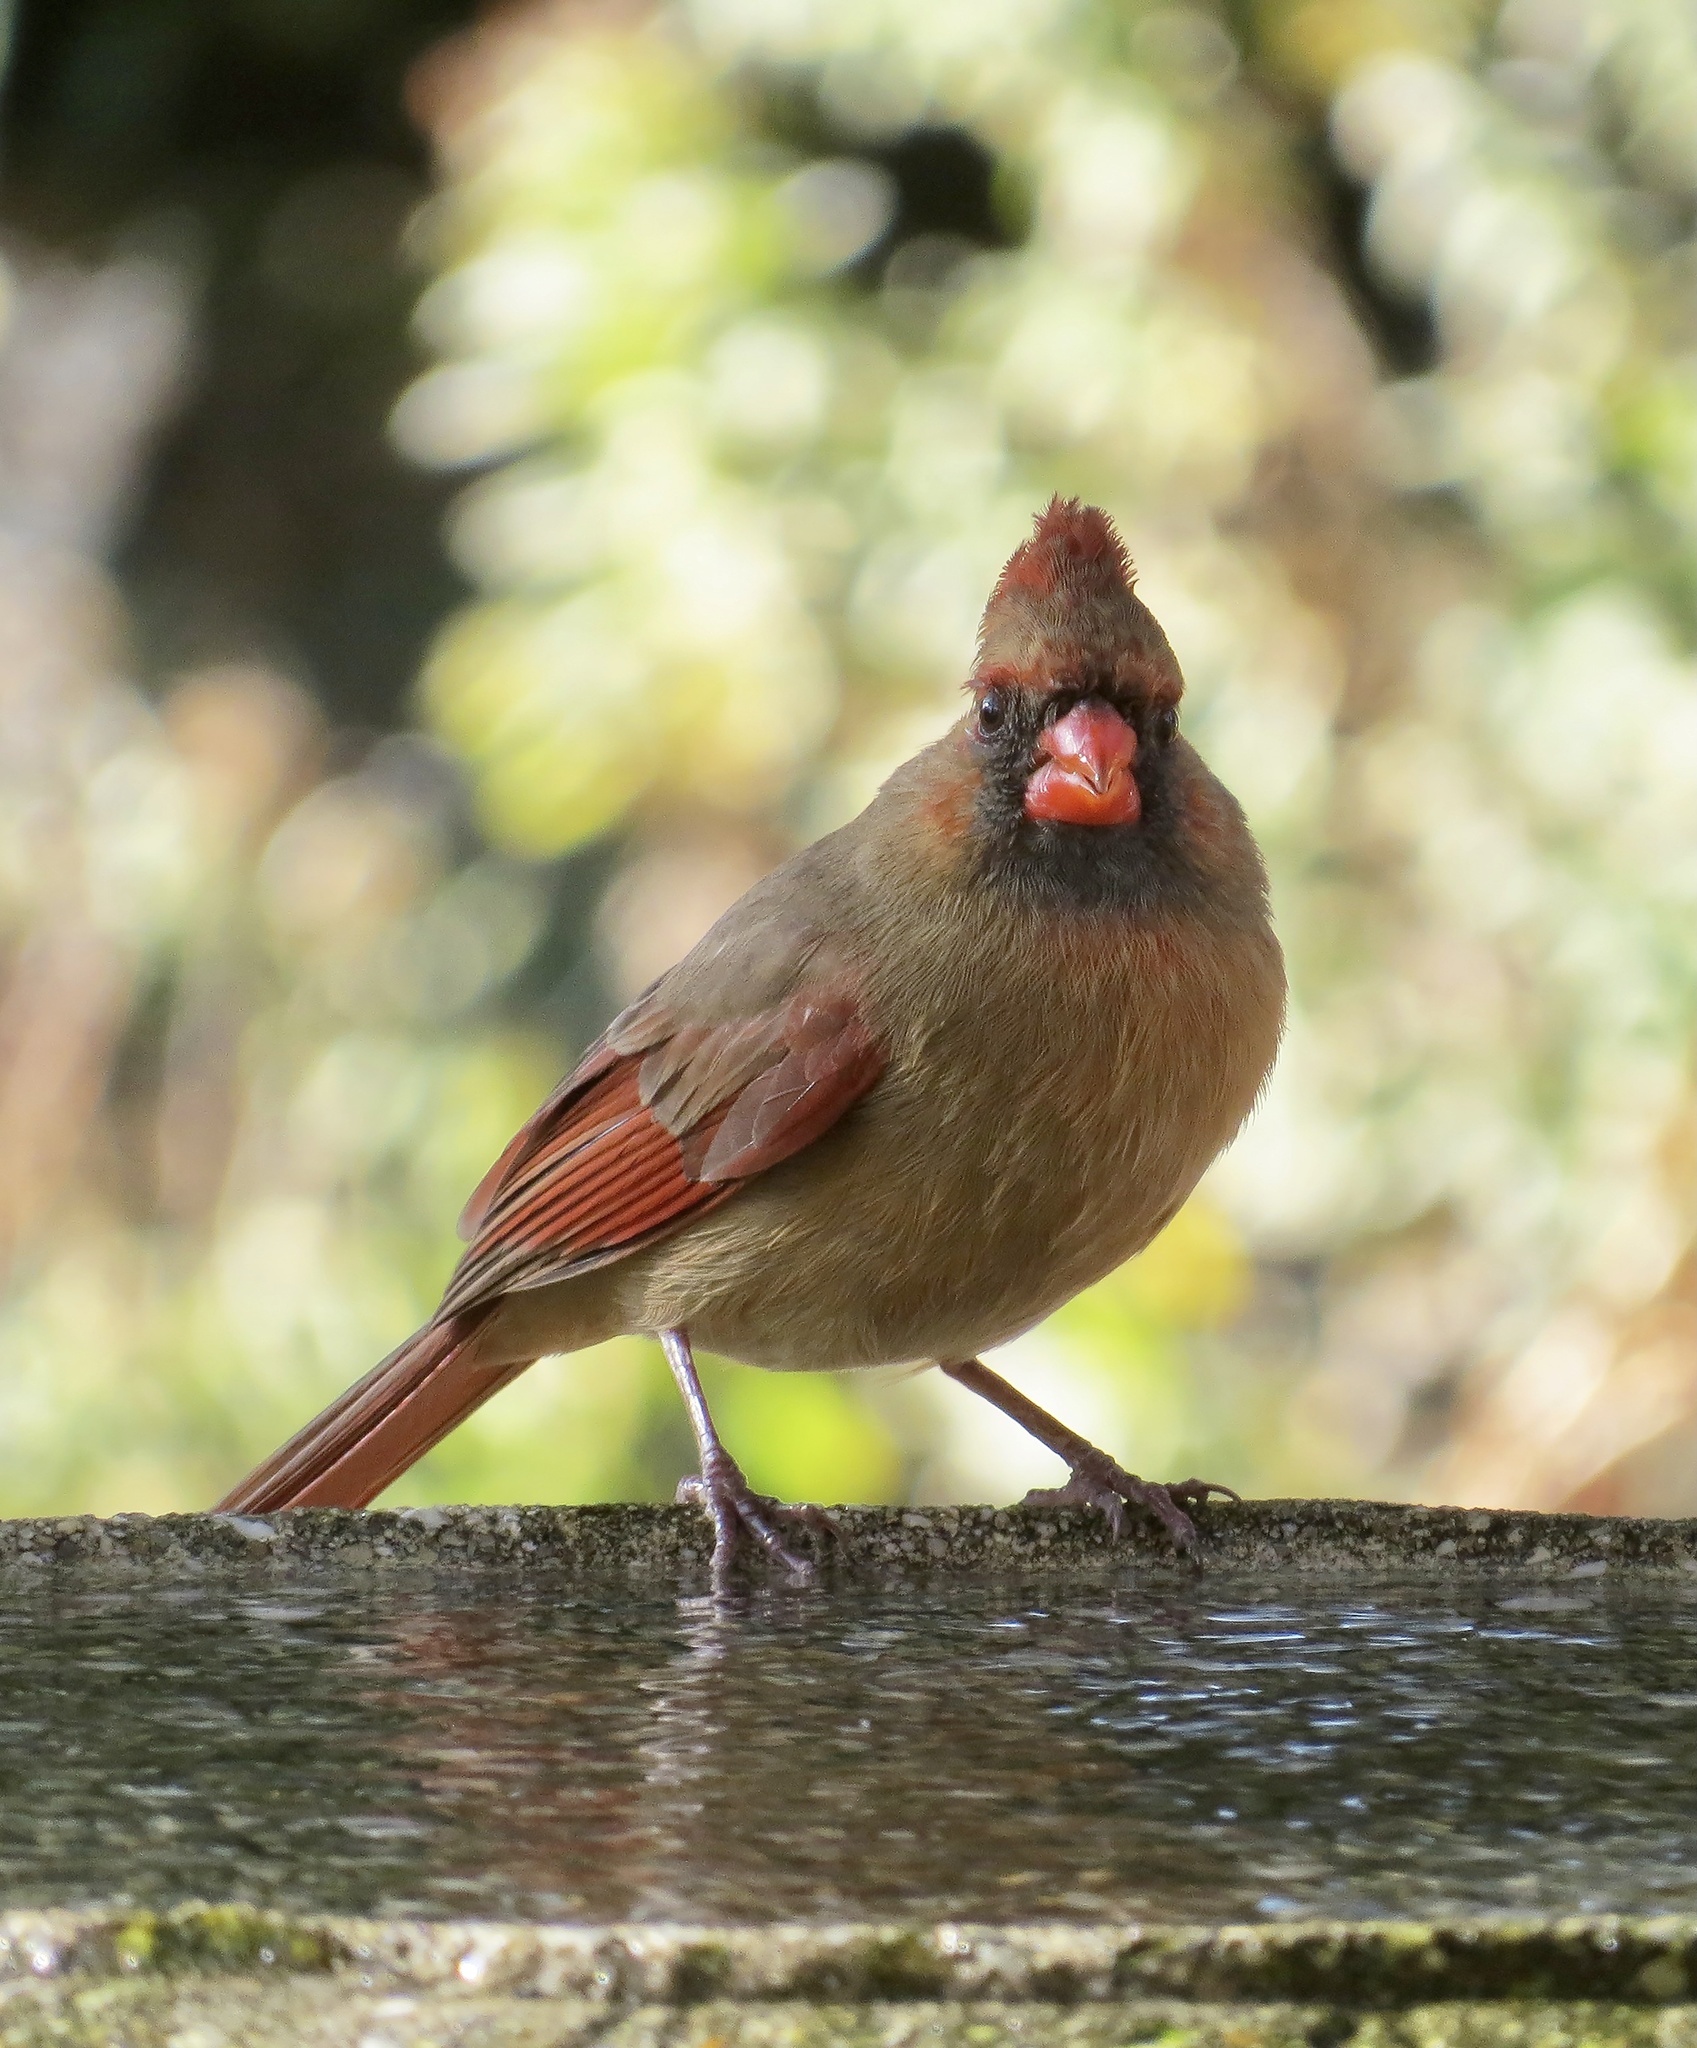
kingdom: Animalia
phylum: Chordata
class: Aves
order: Passeriformes
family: Cardinalidae
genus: Cardinalis
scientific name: Cardinalis cardinalis
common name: Northern cardinal
